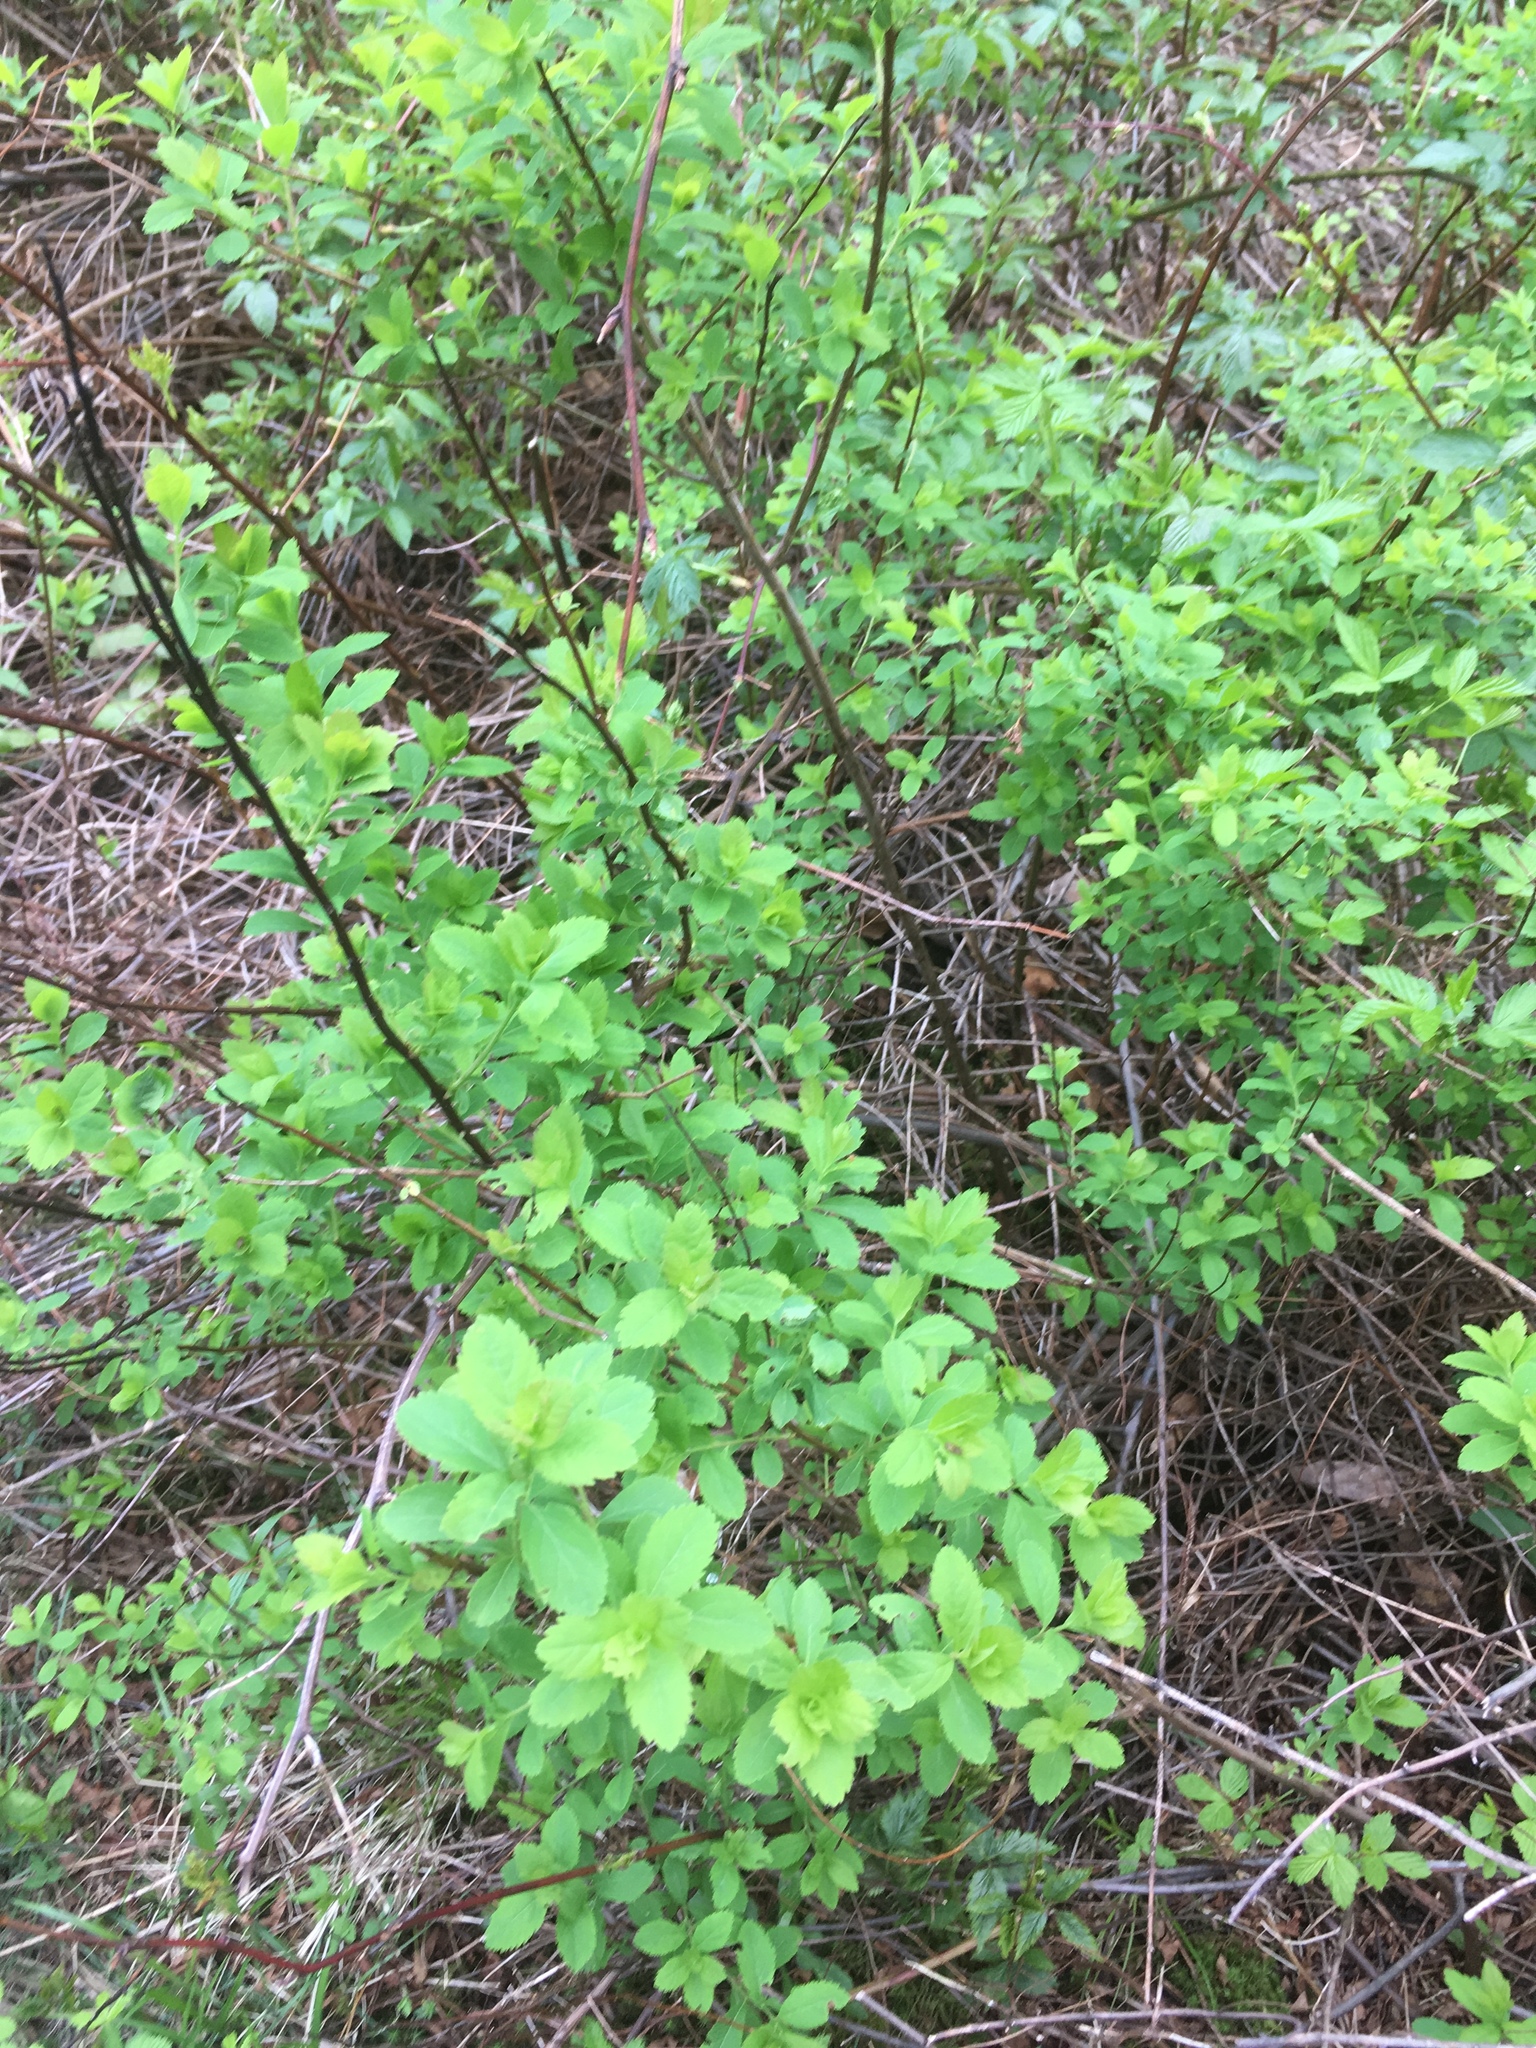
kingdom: Plantae
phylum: Tracheophyta
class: Magnoliopsida
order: Rosales
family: Rosaceae
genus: Spiraea
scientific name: Spiraea alba
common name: Pale bridewort
